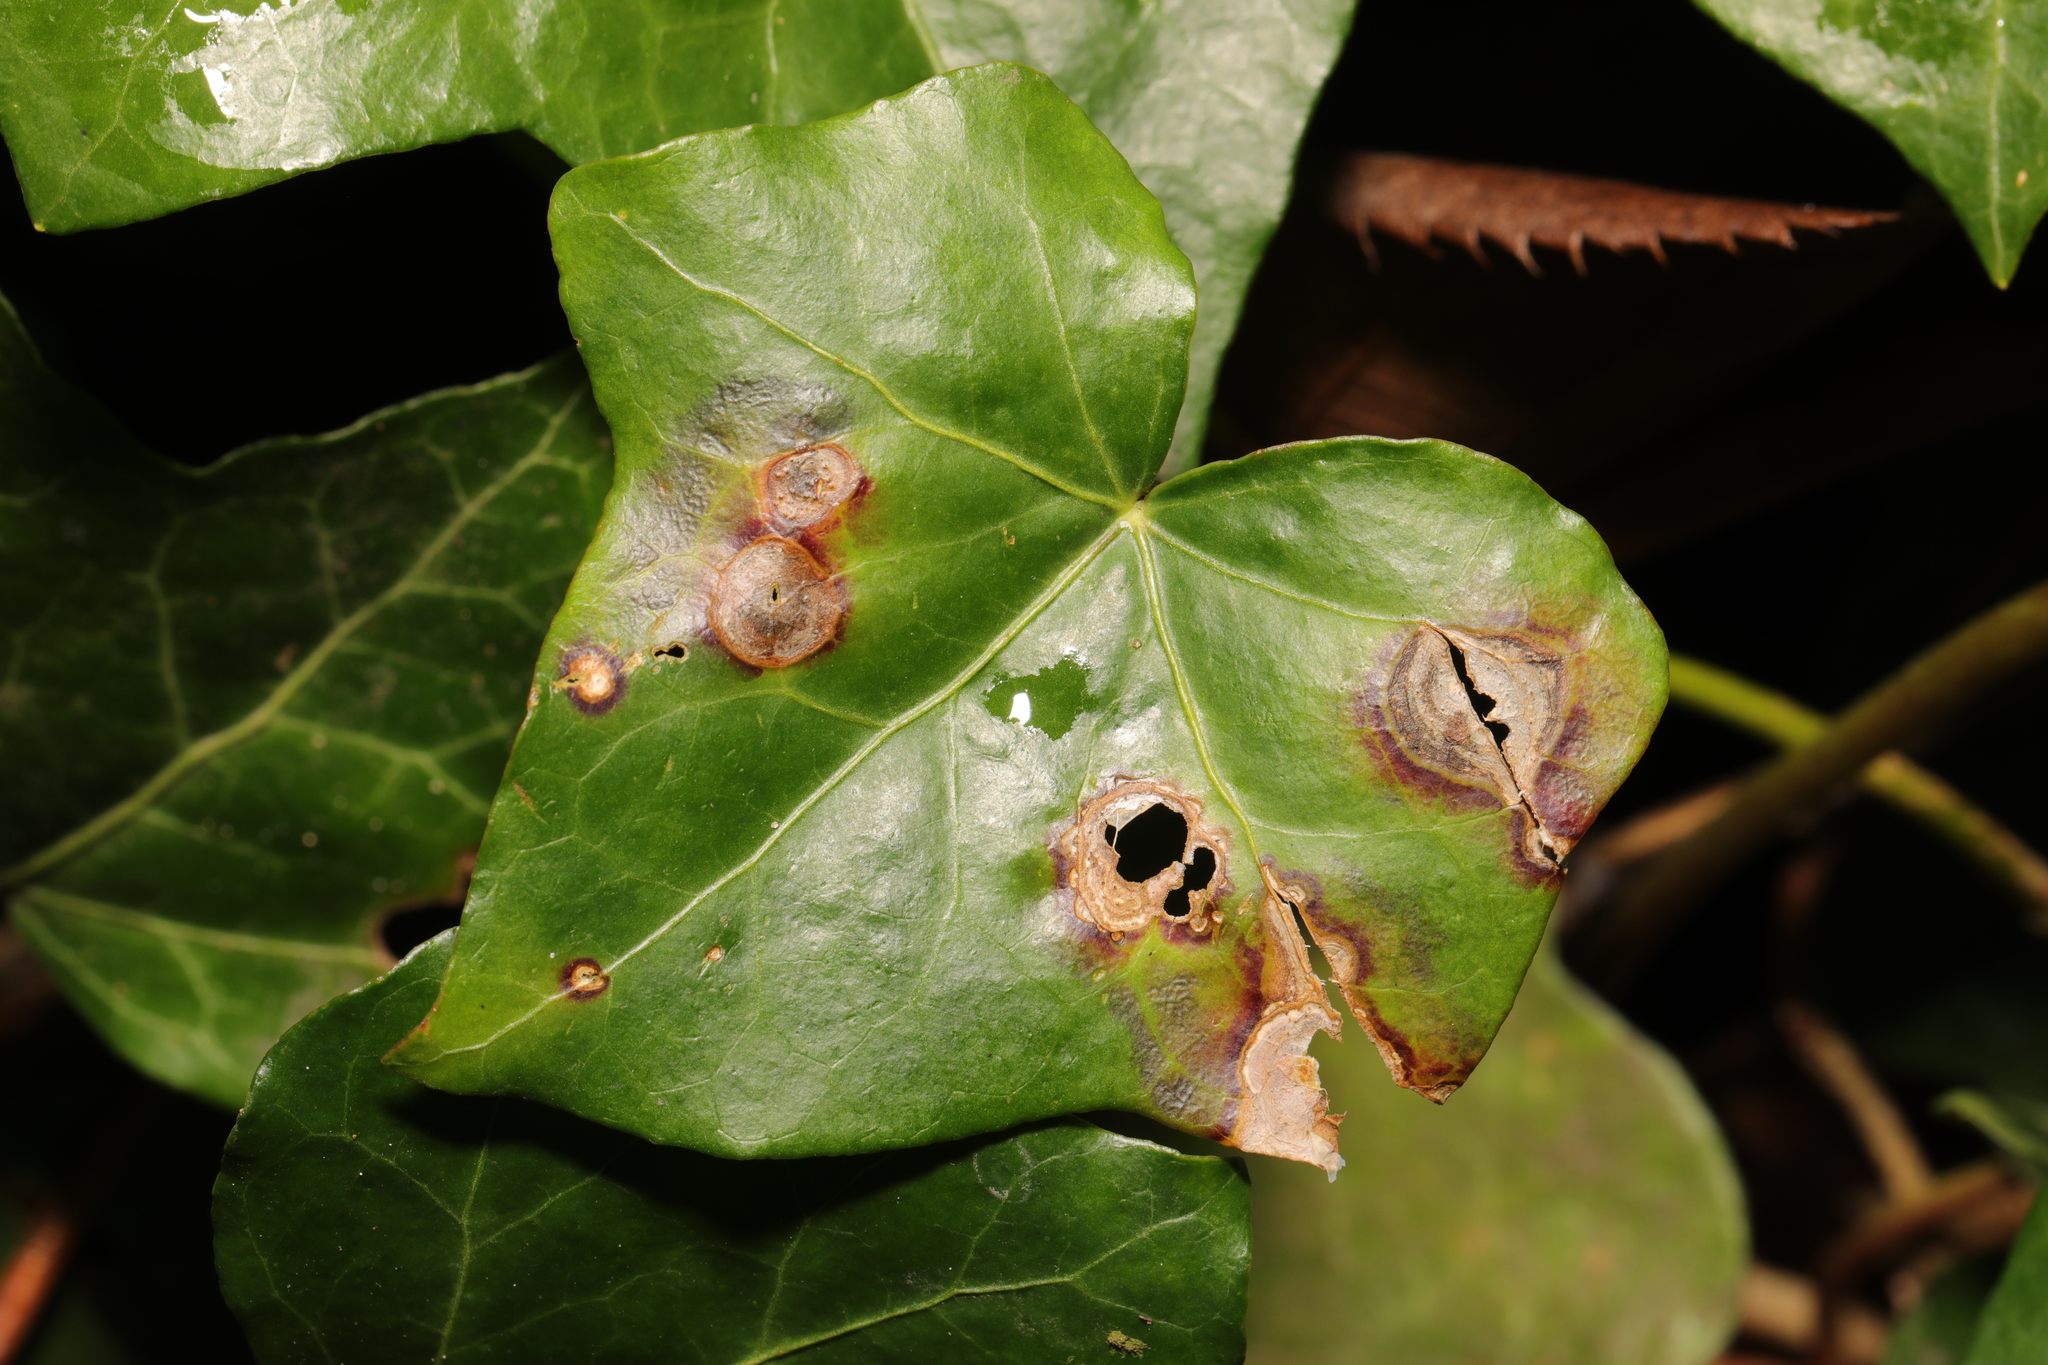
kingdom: Fungi
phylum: Ascomycota
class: Dothideomycetes
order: Pleosporales
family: Didymellaceae
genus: Boeremia
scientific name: Boeremia hedericola
